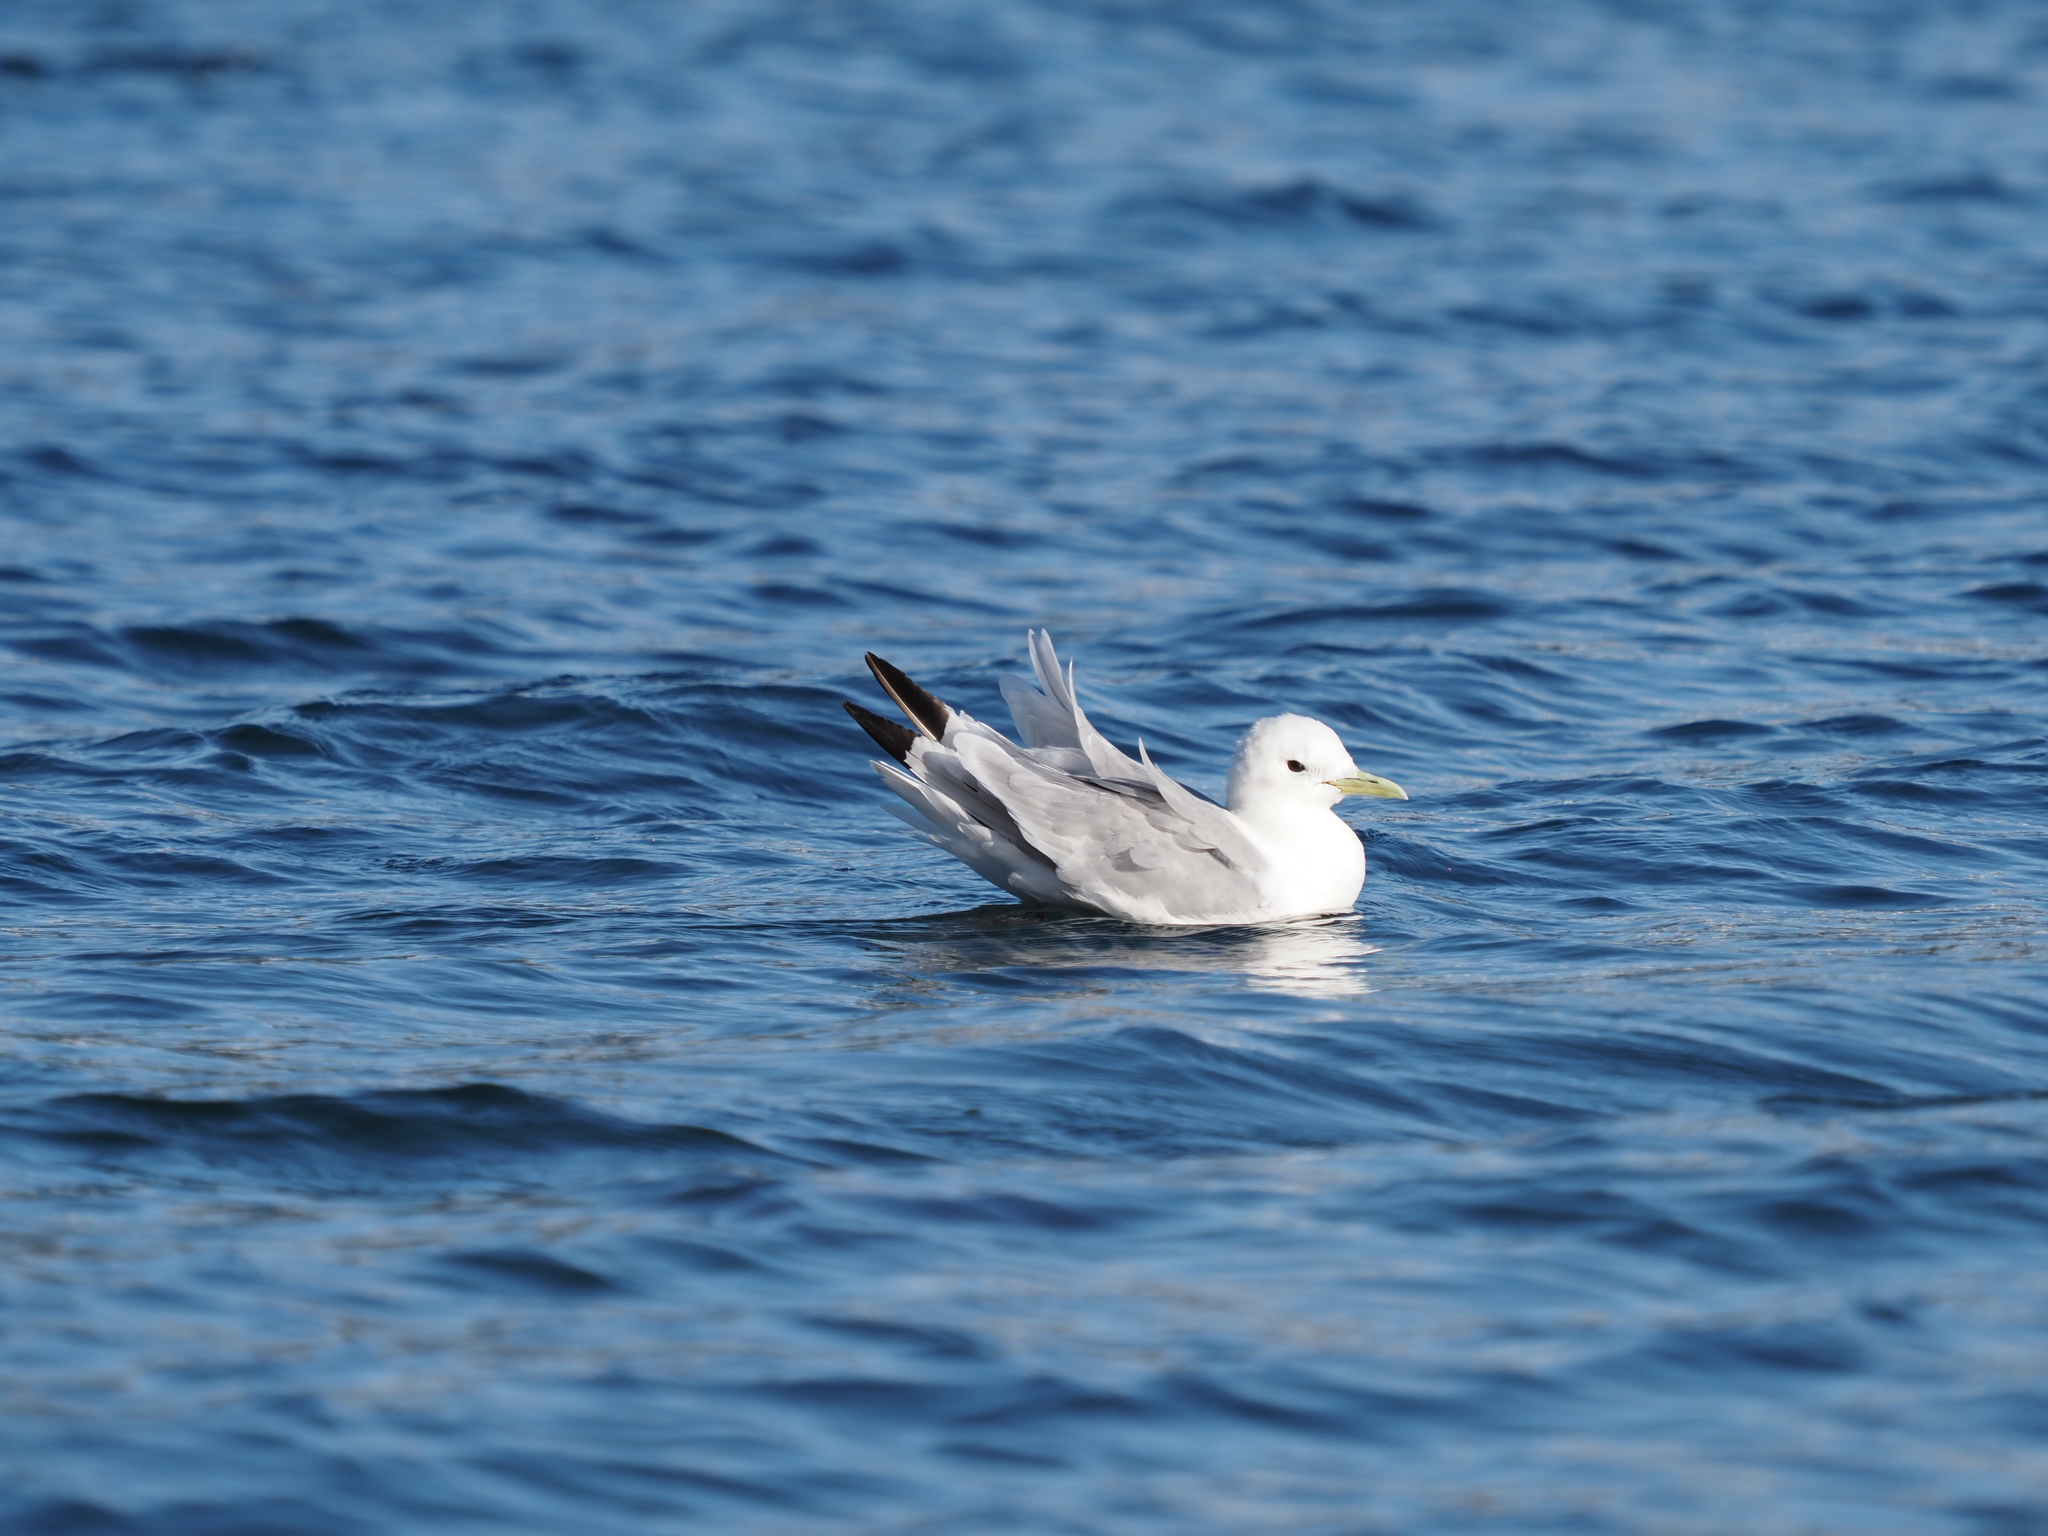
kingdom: Animalia
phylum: Chordata
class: Aves
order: Charadriiformes
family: Laridae
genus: Rissa
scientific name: Rissa tridactyla
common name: Black-legged kittiwake
